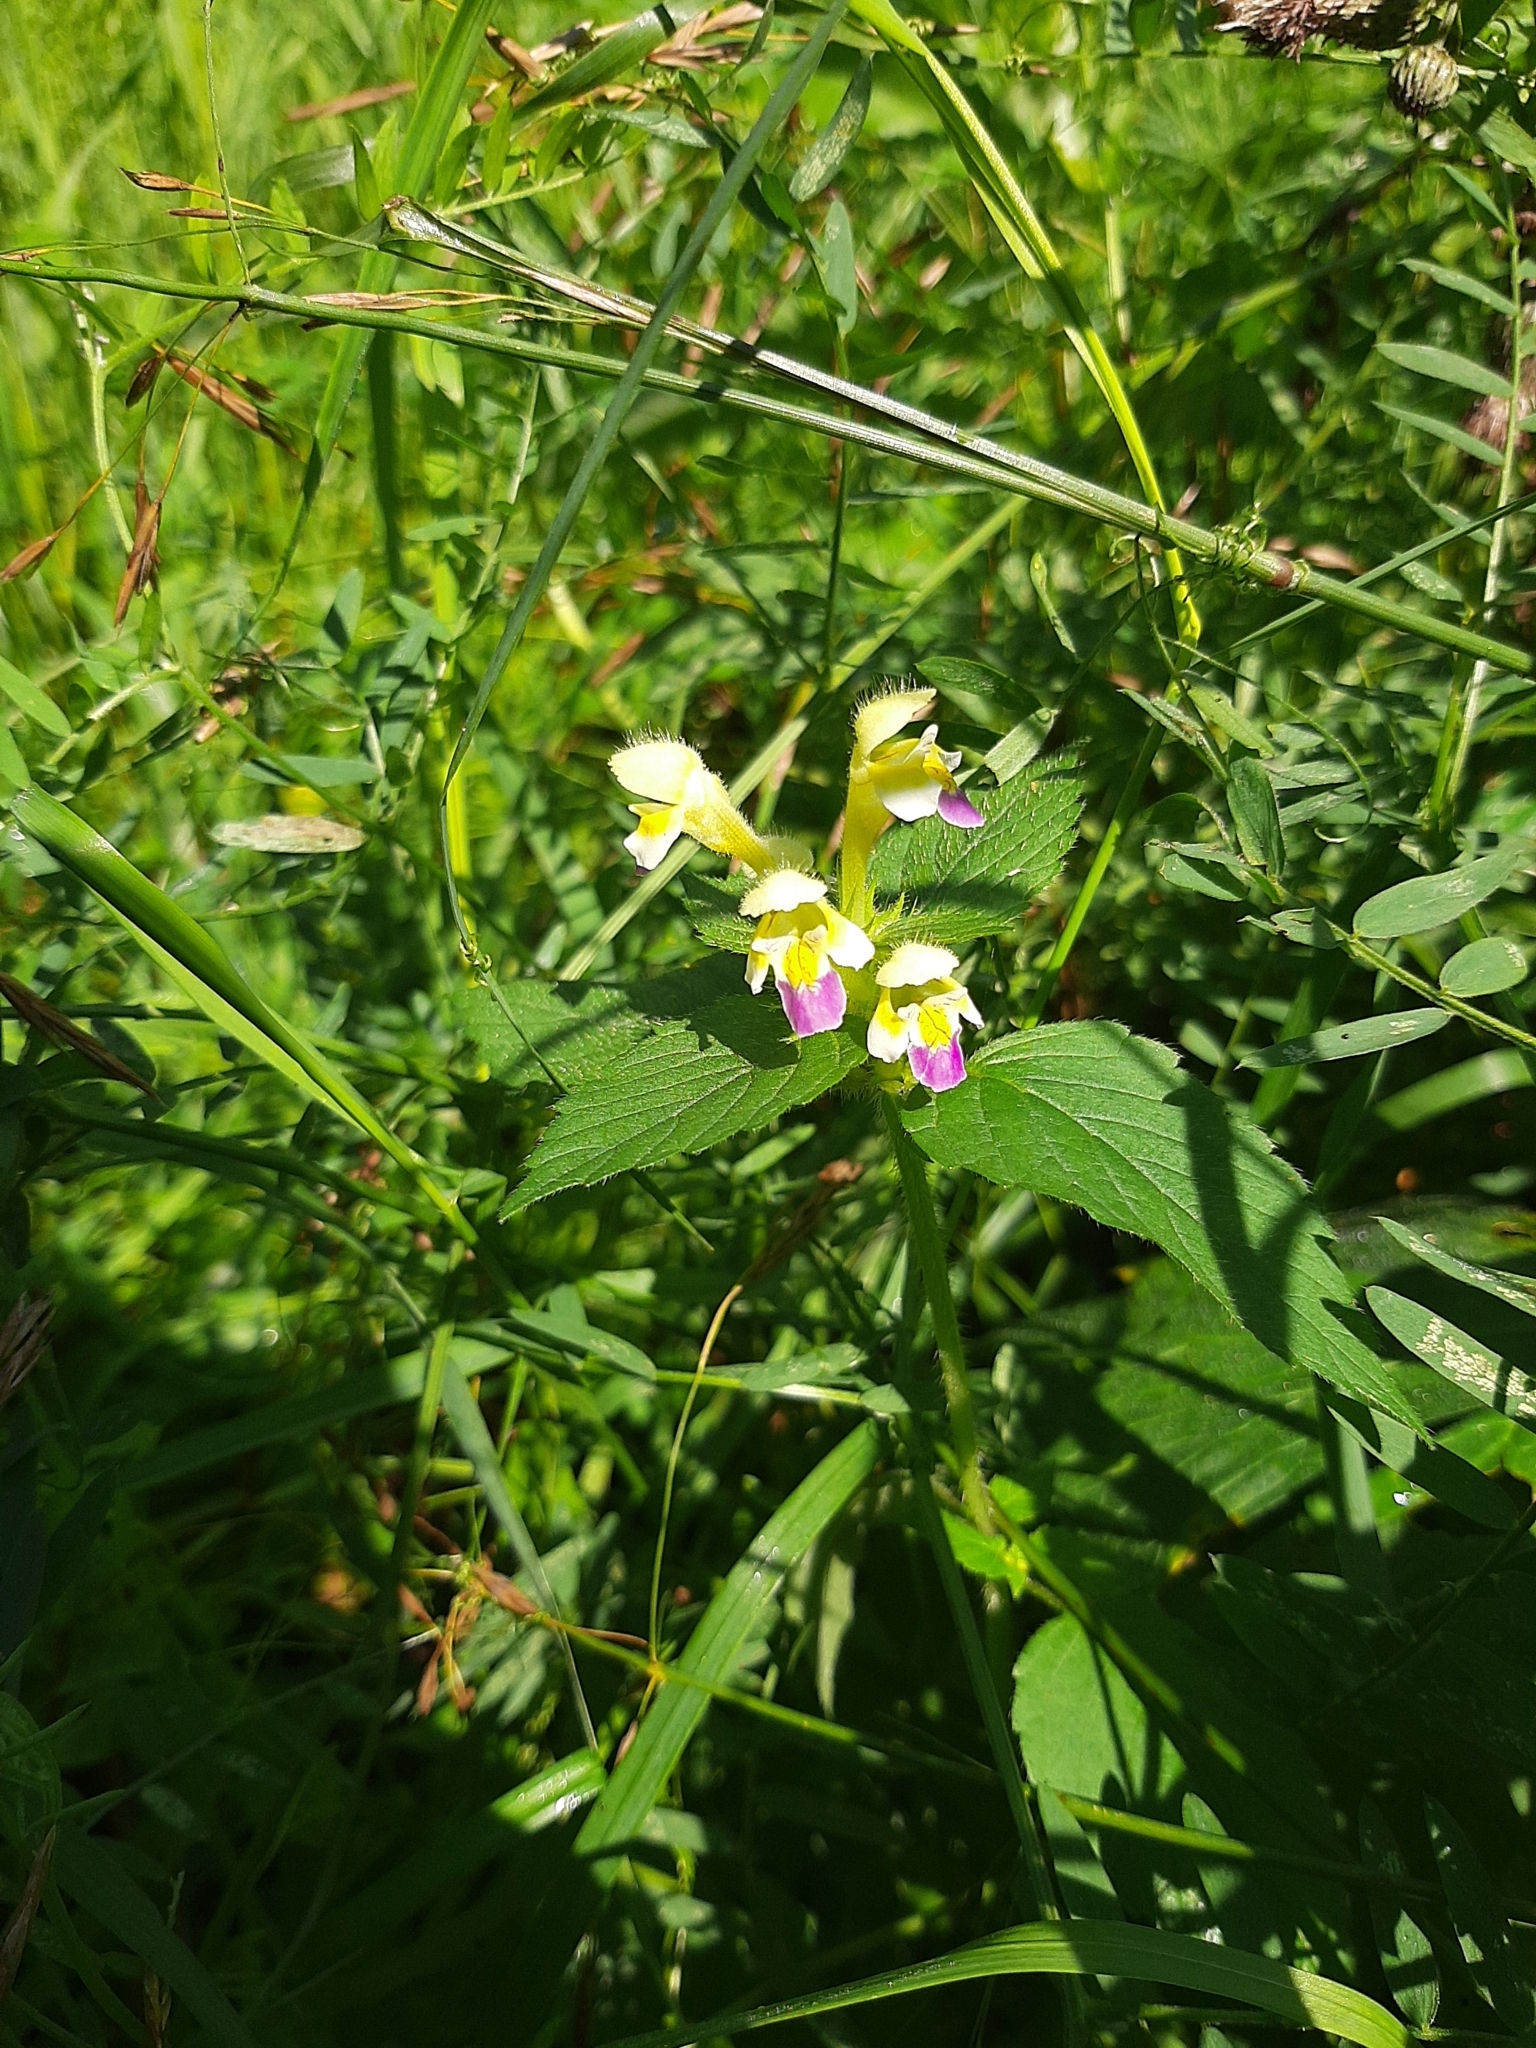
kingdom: Plantae
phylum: Tracheophyta
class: Magnoliopsida
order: Lamiales
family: Lamiaceae
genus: Galeopsis
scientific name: Galeopsis speciosa
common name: Large-flowered hemp-nettle
